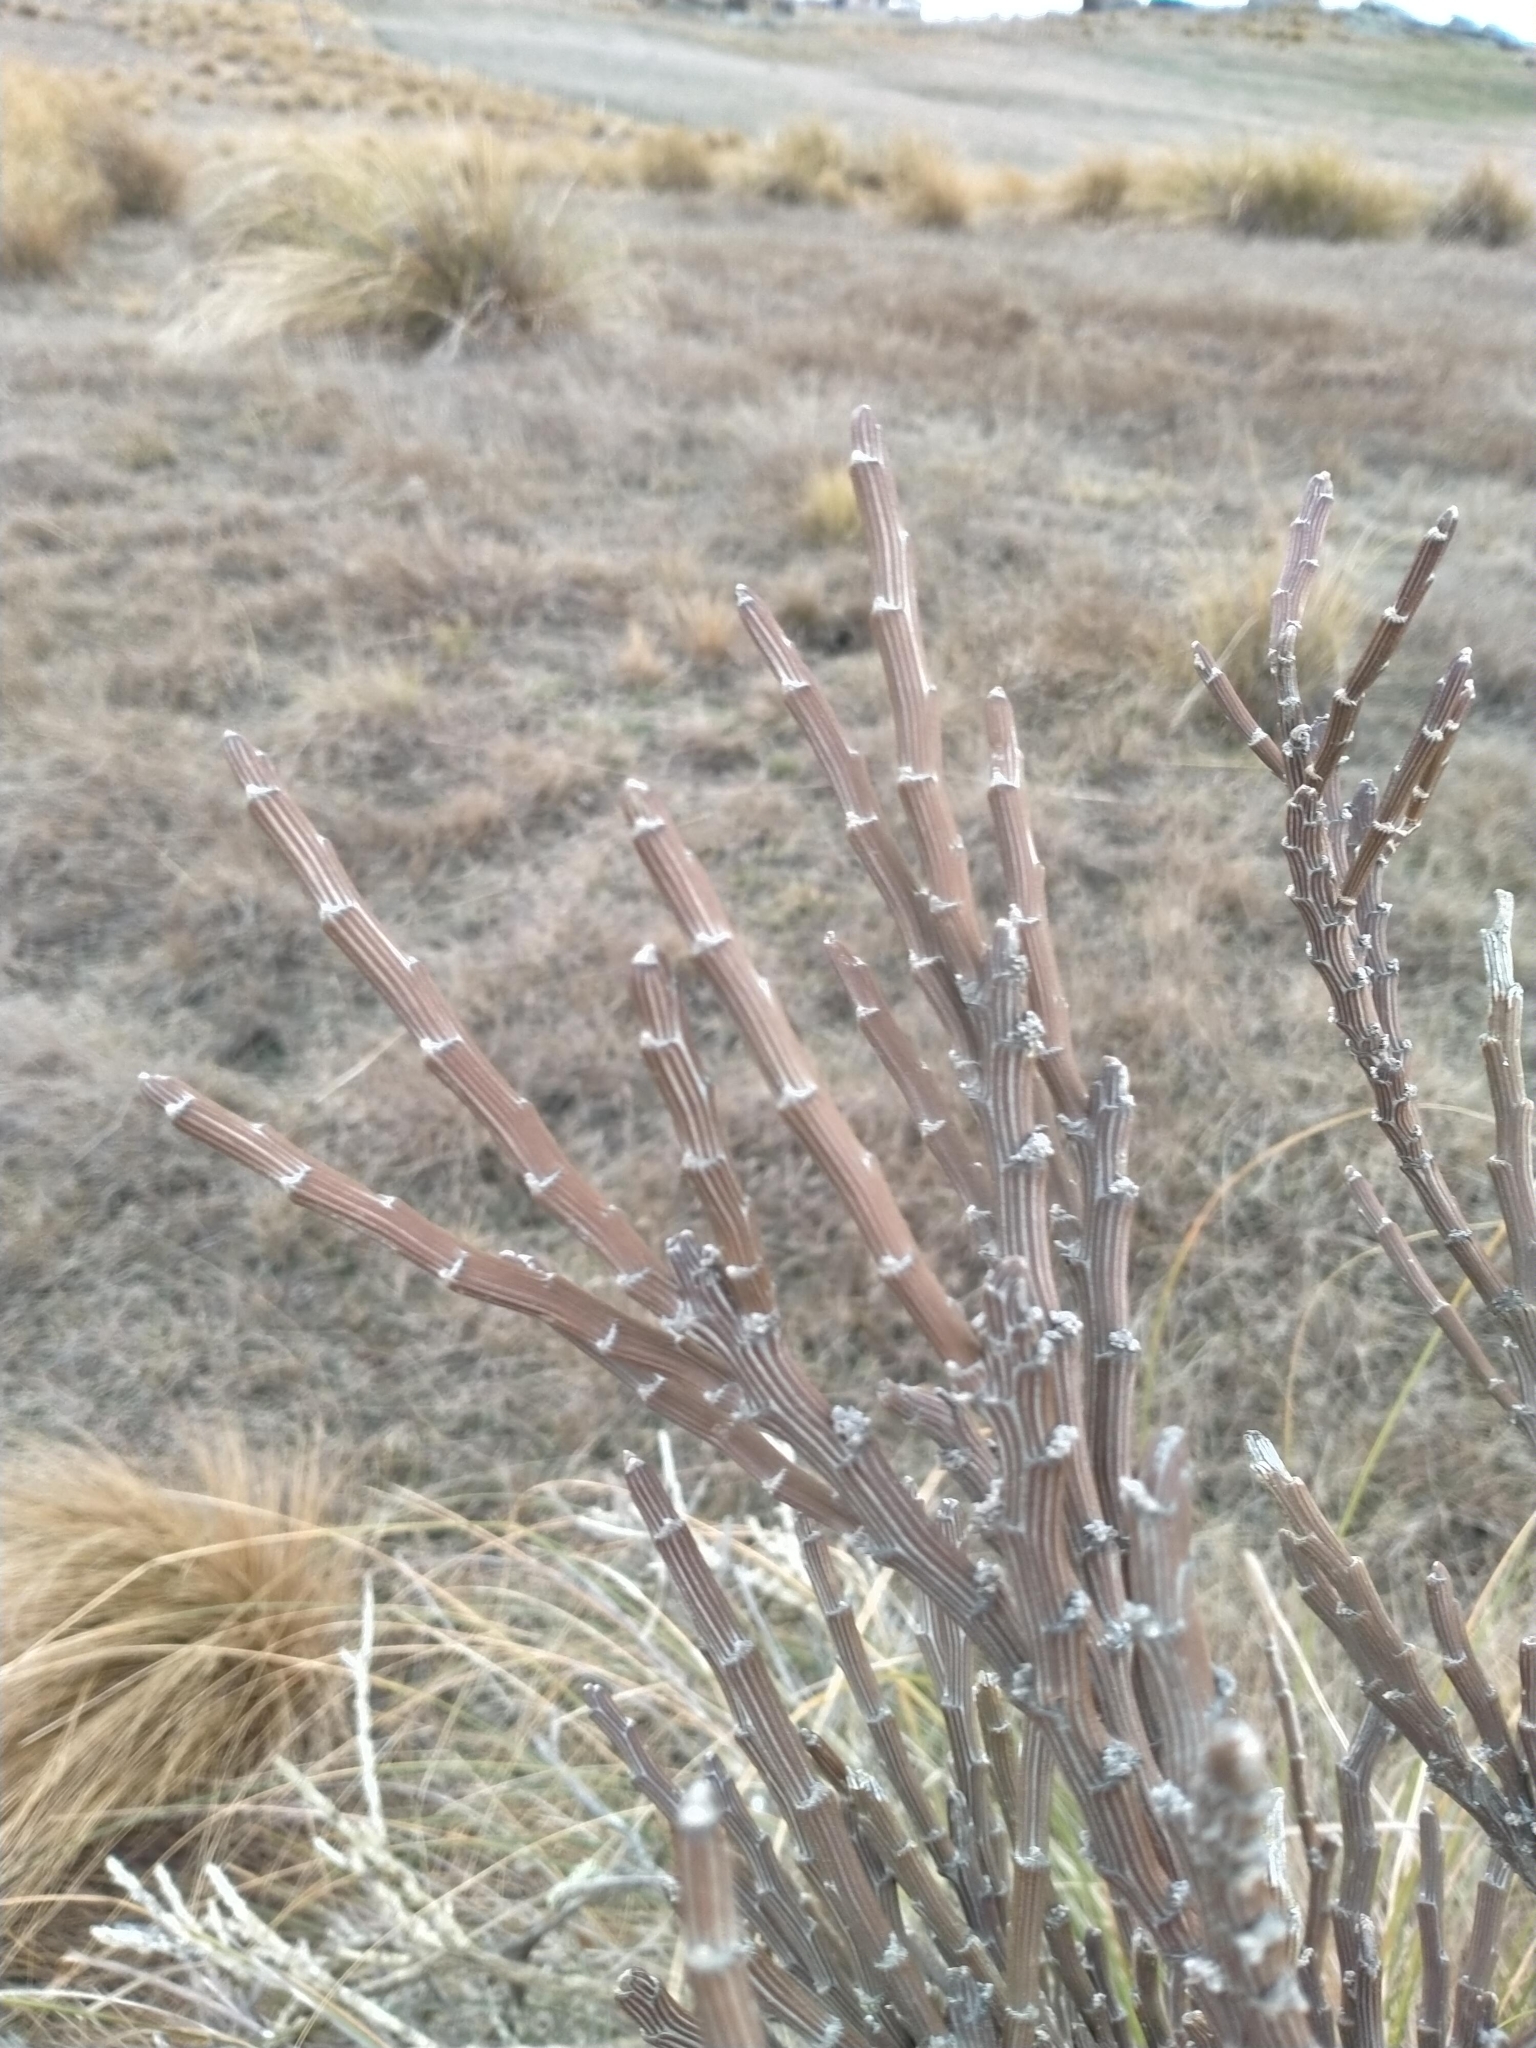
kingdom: Plantae
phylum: Tracheophyta
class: Magnoliopsida
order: Fabales
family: Fabaceae
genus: Carmichaelia
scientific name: Carmichaelia crassicaulis
